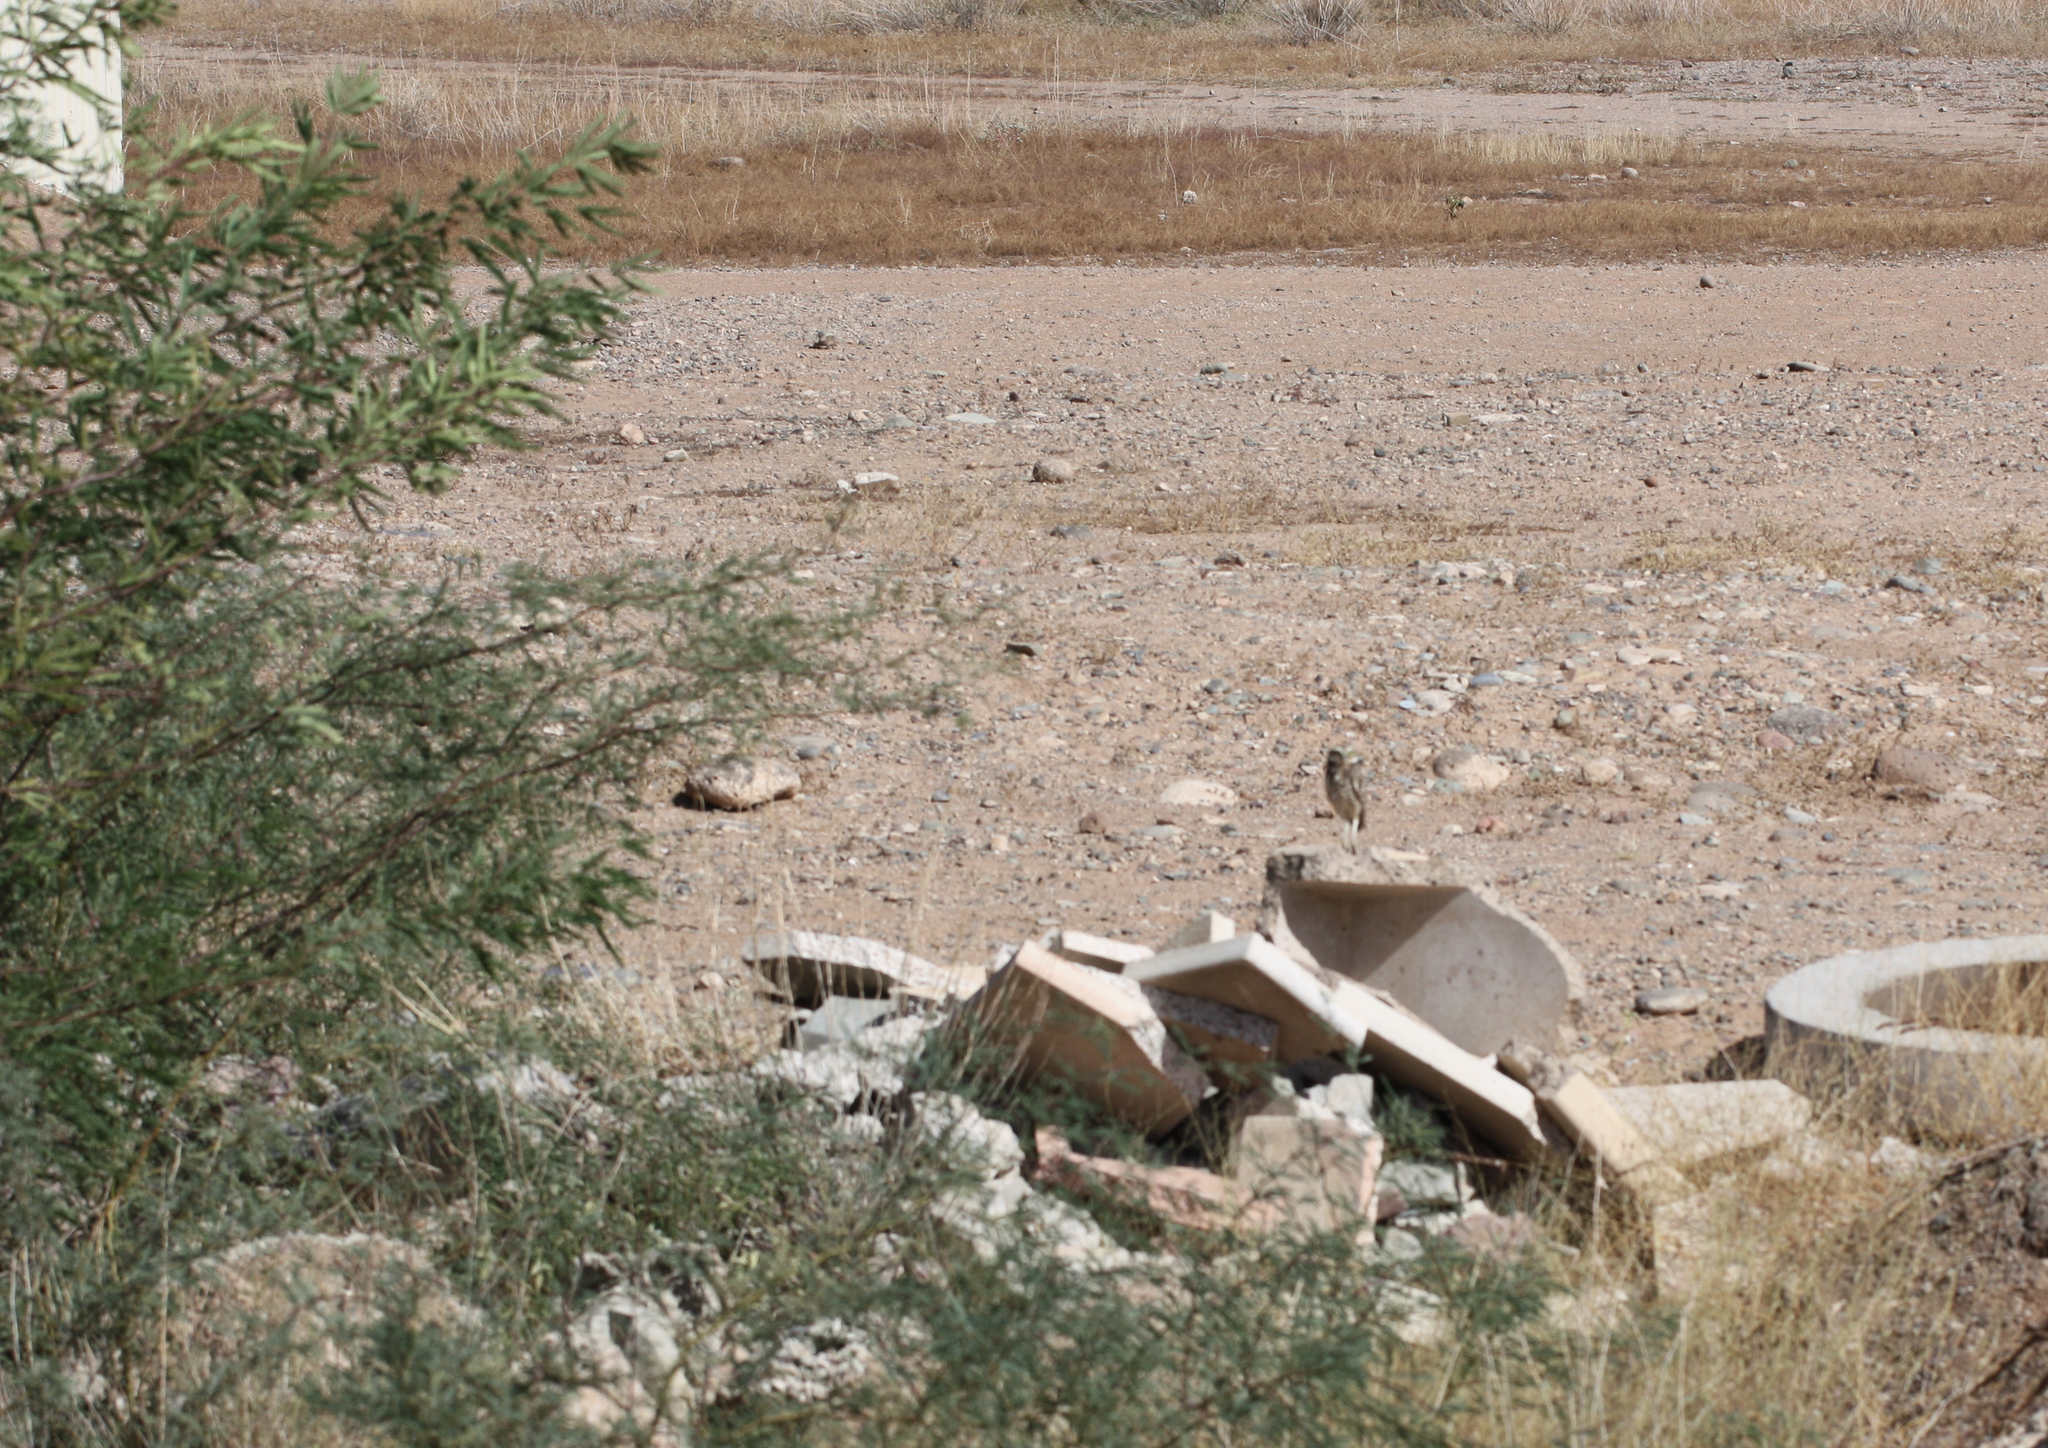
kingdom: Animalia
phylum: Chordata
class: Aves
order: Strigiformes
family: Strigidae
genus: Athene
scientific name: Athene cunicularia
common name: Burrowing owl
